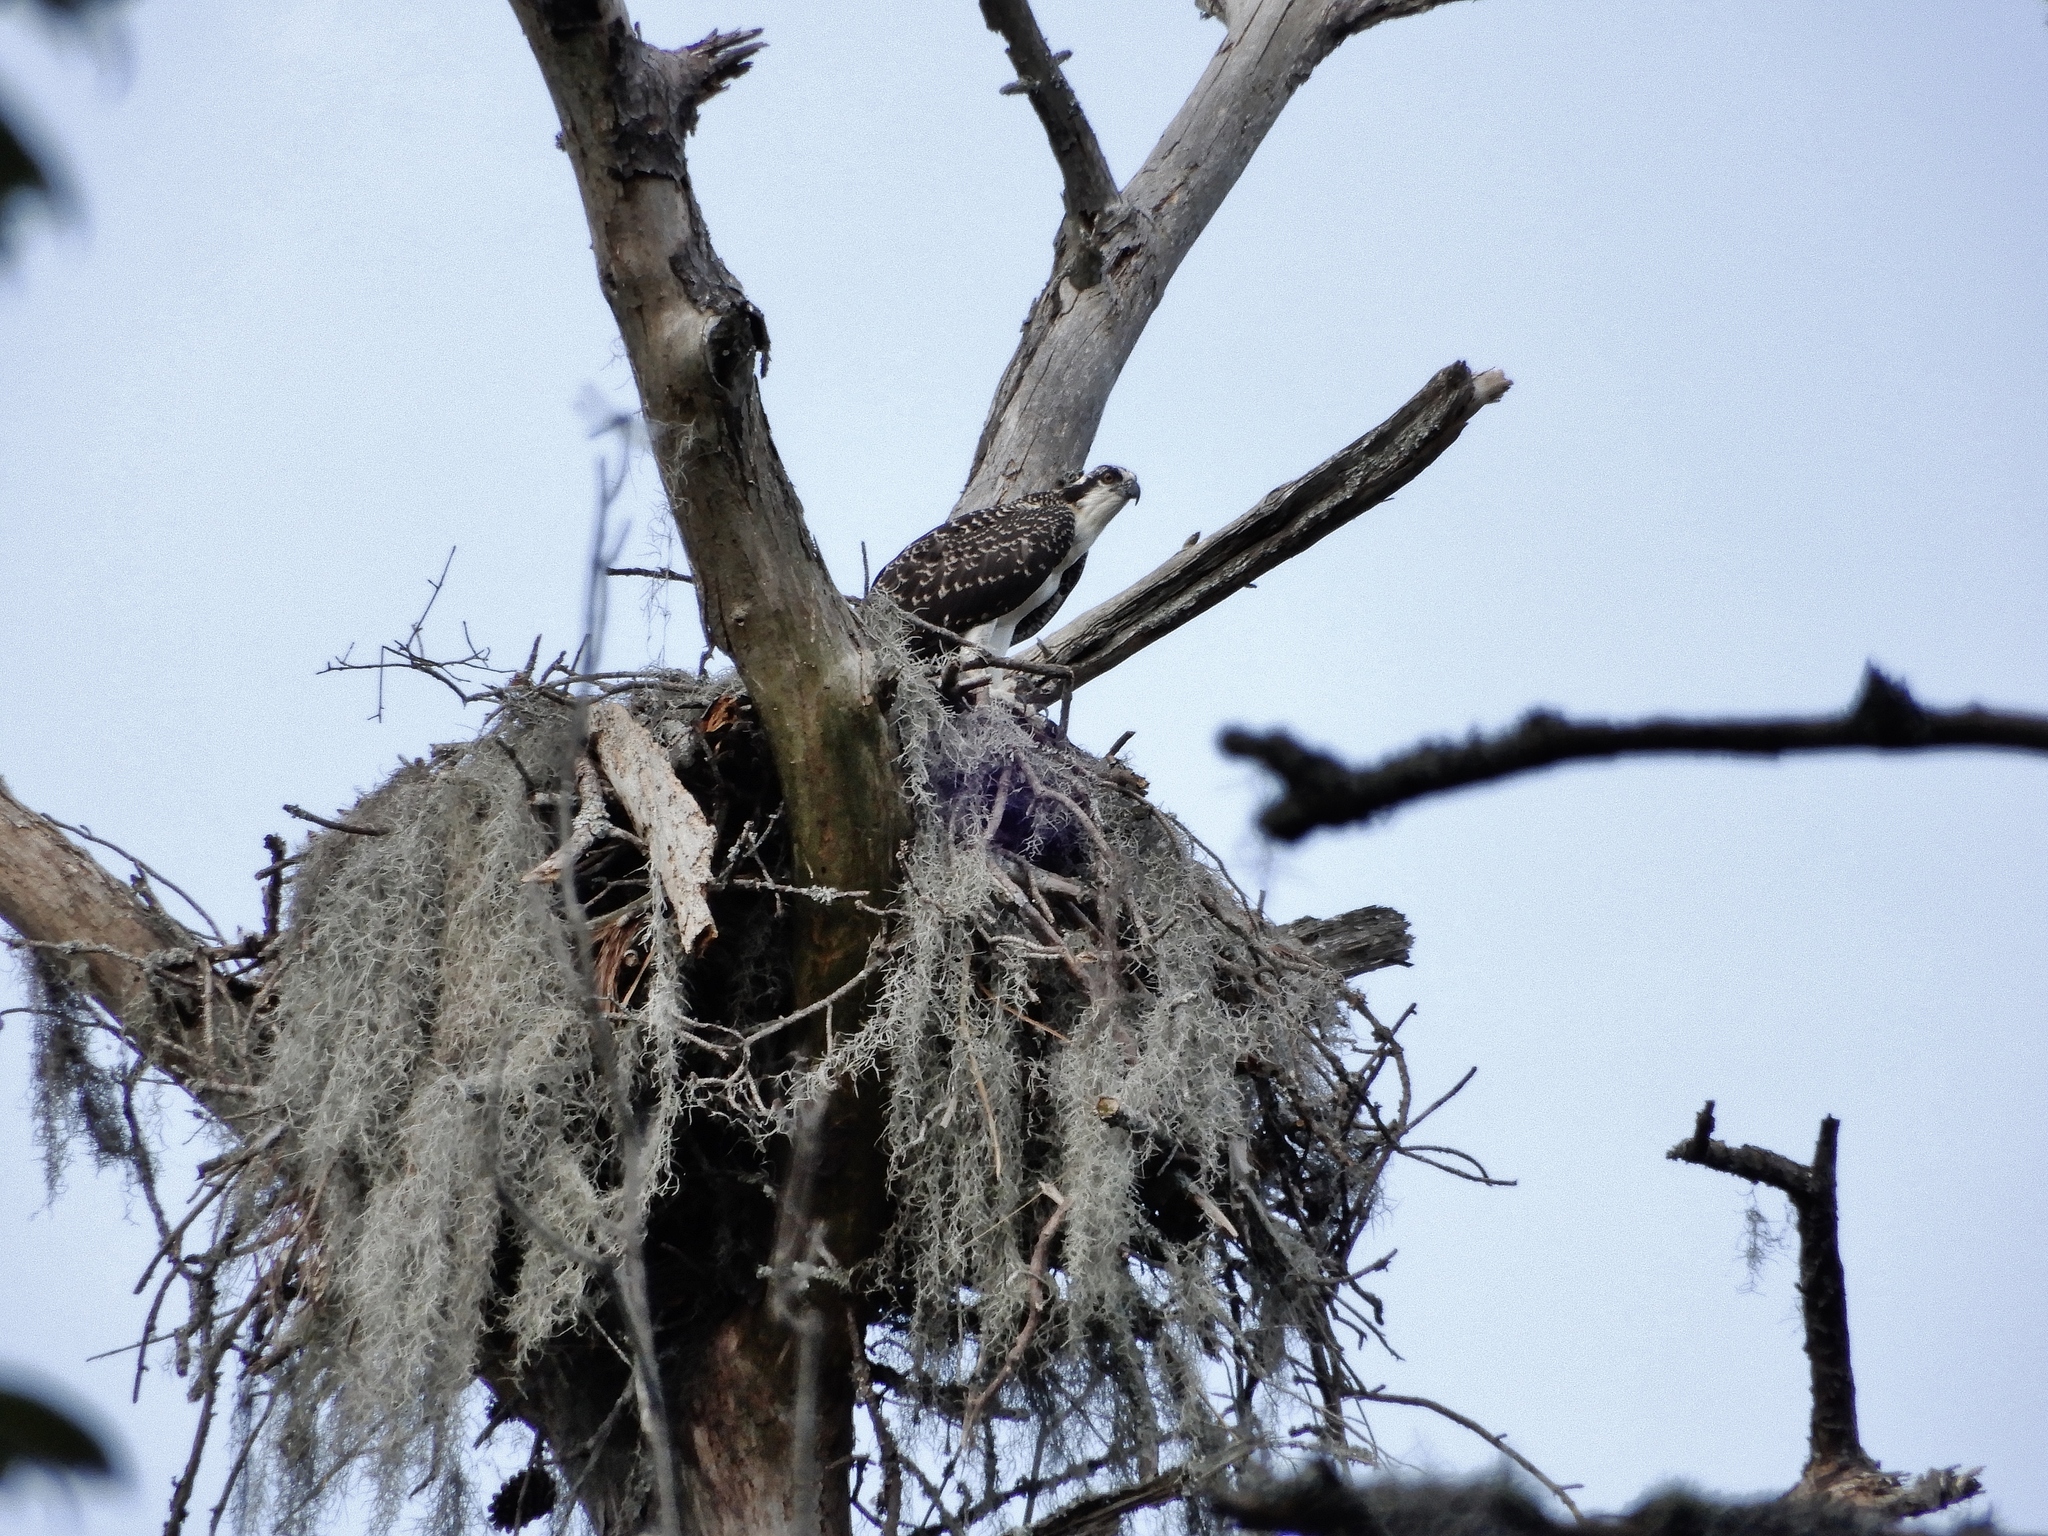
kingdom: Animalia
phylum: Chordata
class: Aves
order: Accipitriformes
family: Pandionidae
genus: Pandion
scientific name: Pandion haliaetus
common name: Osprey
